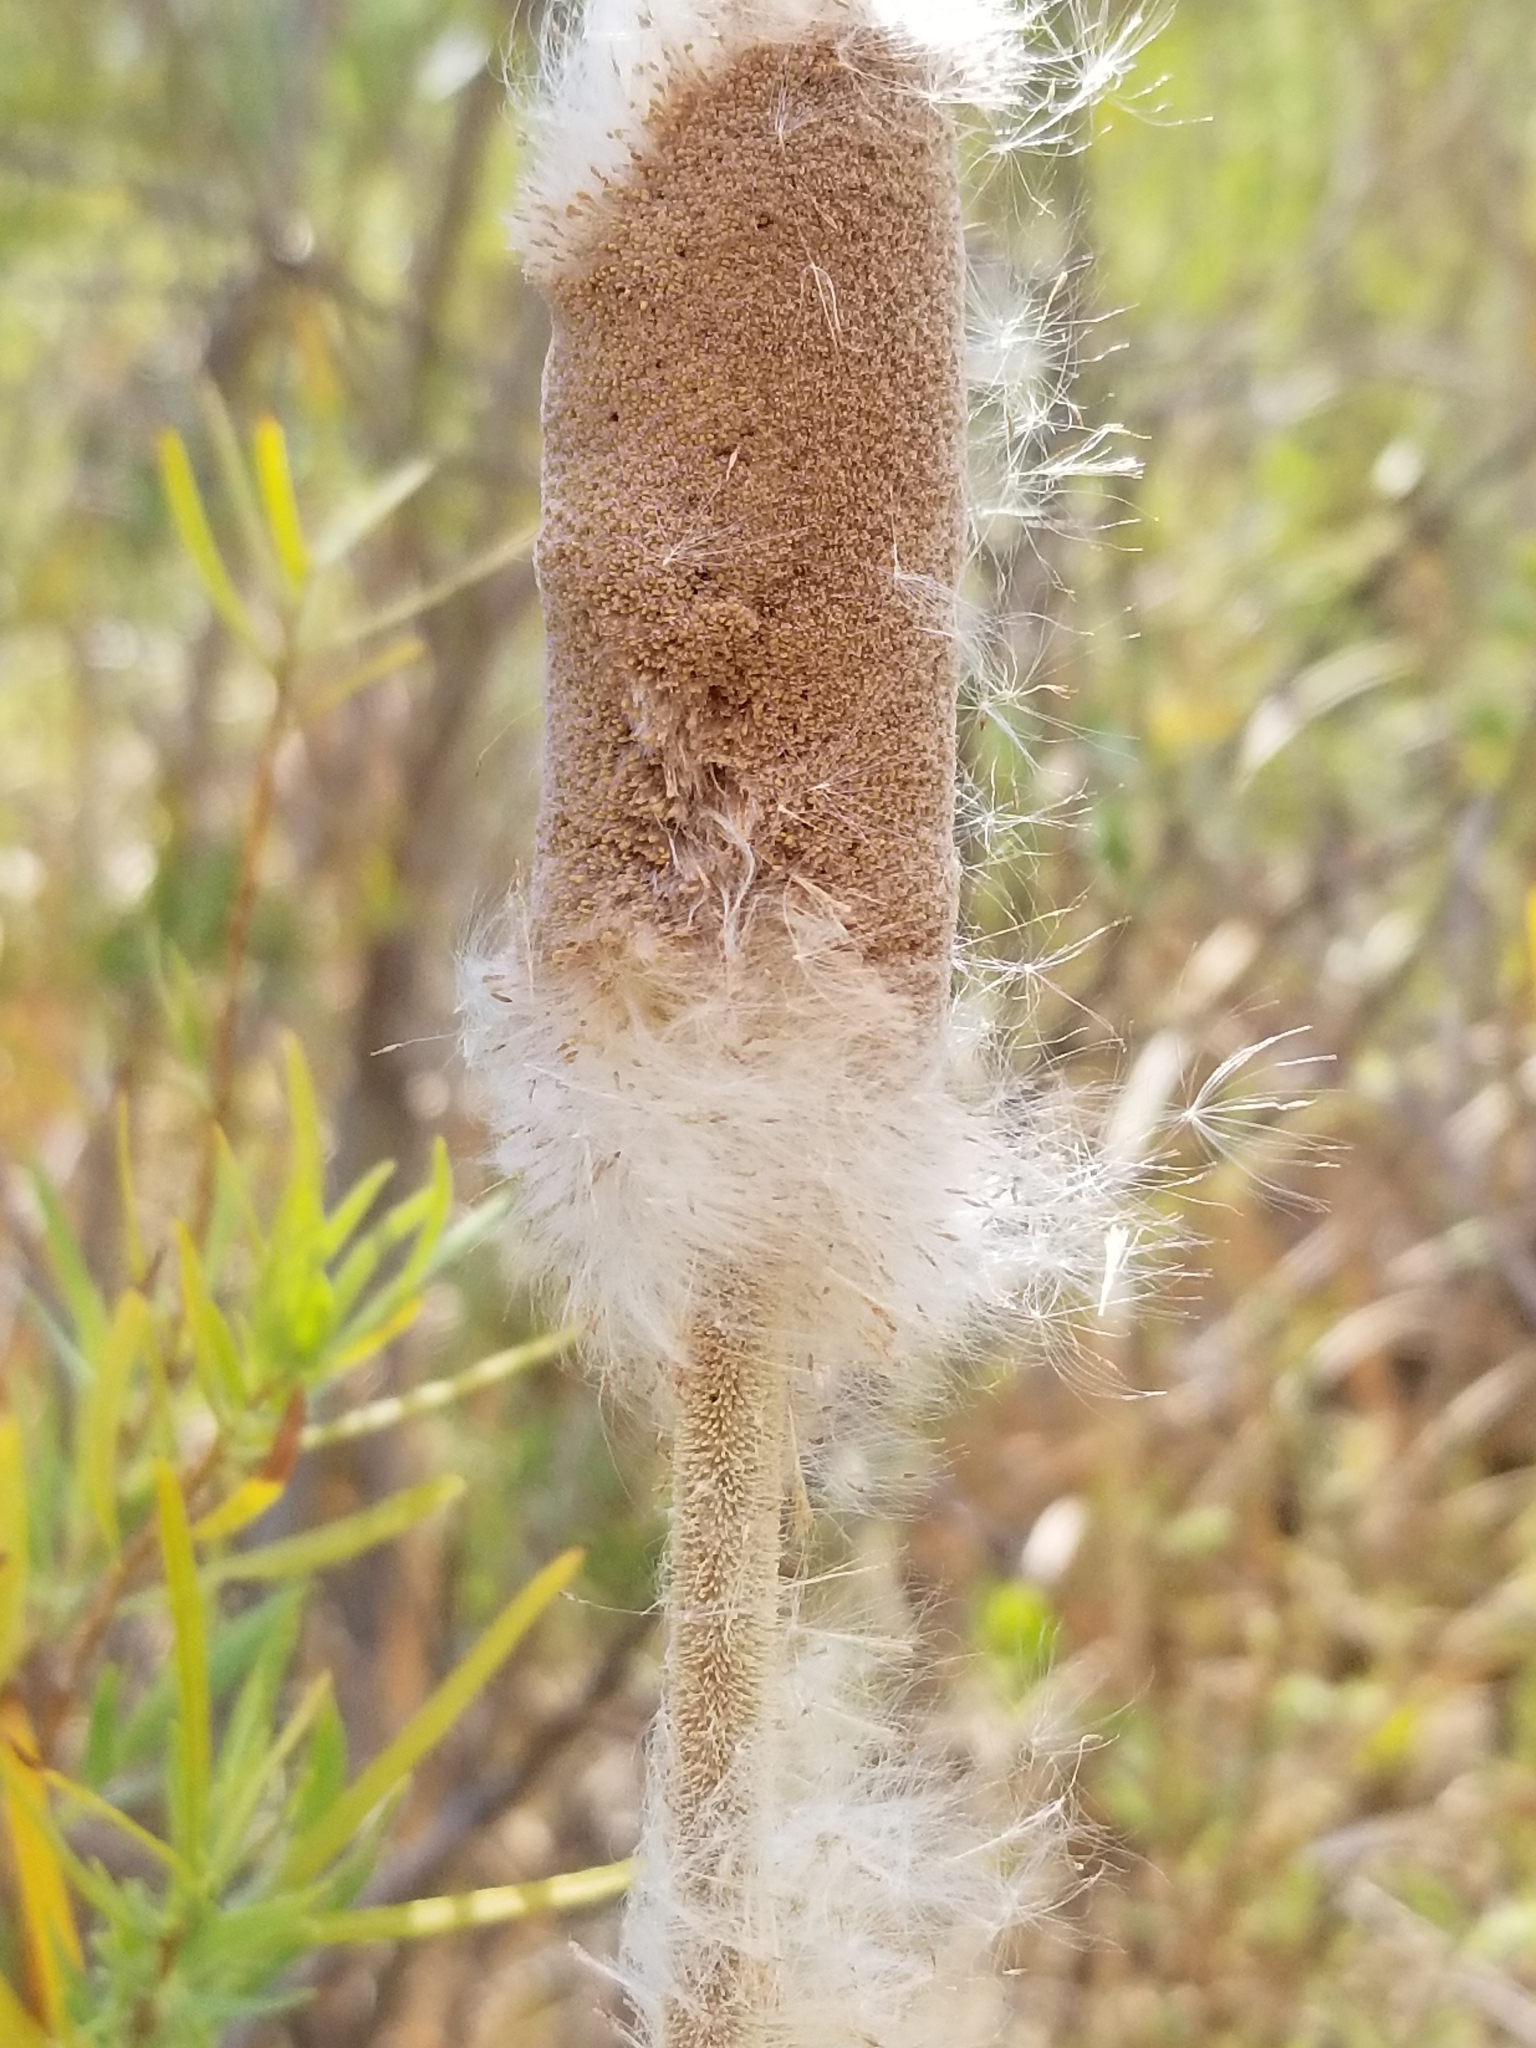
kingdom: Plantae
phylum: Tracheophyta
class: Liliopsida
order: Poales
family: Typhaceae
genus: Typha
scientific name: Typha domingensis
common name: Southern cattail
